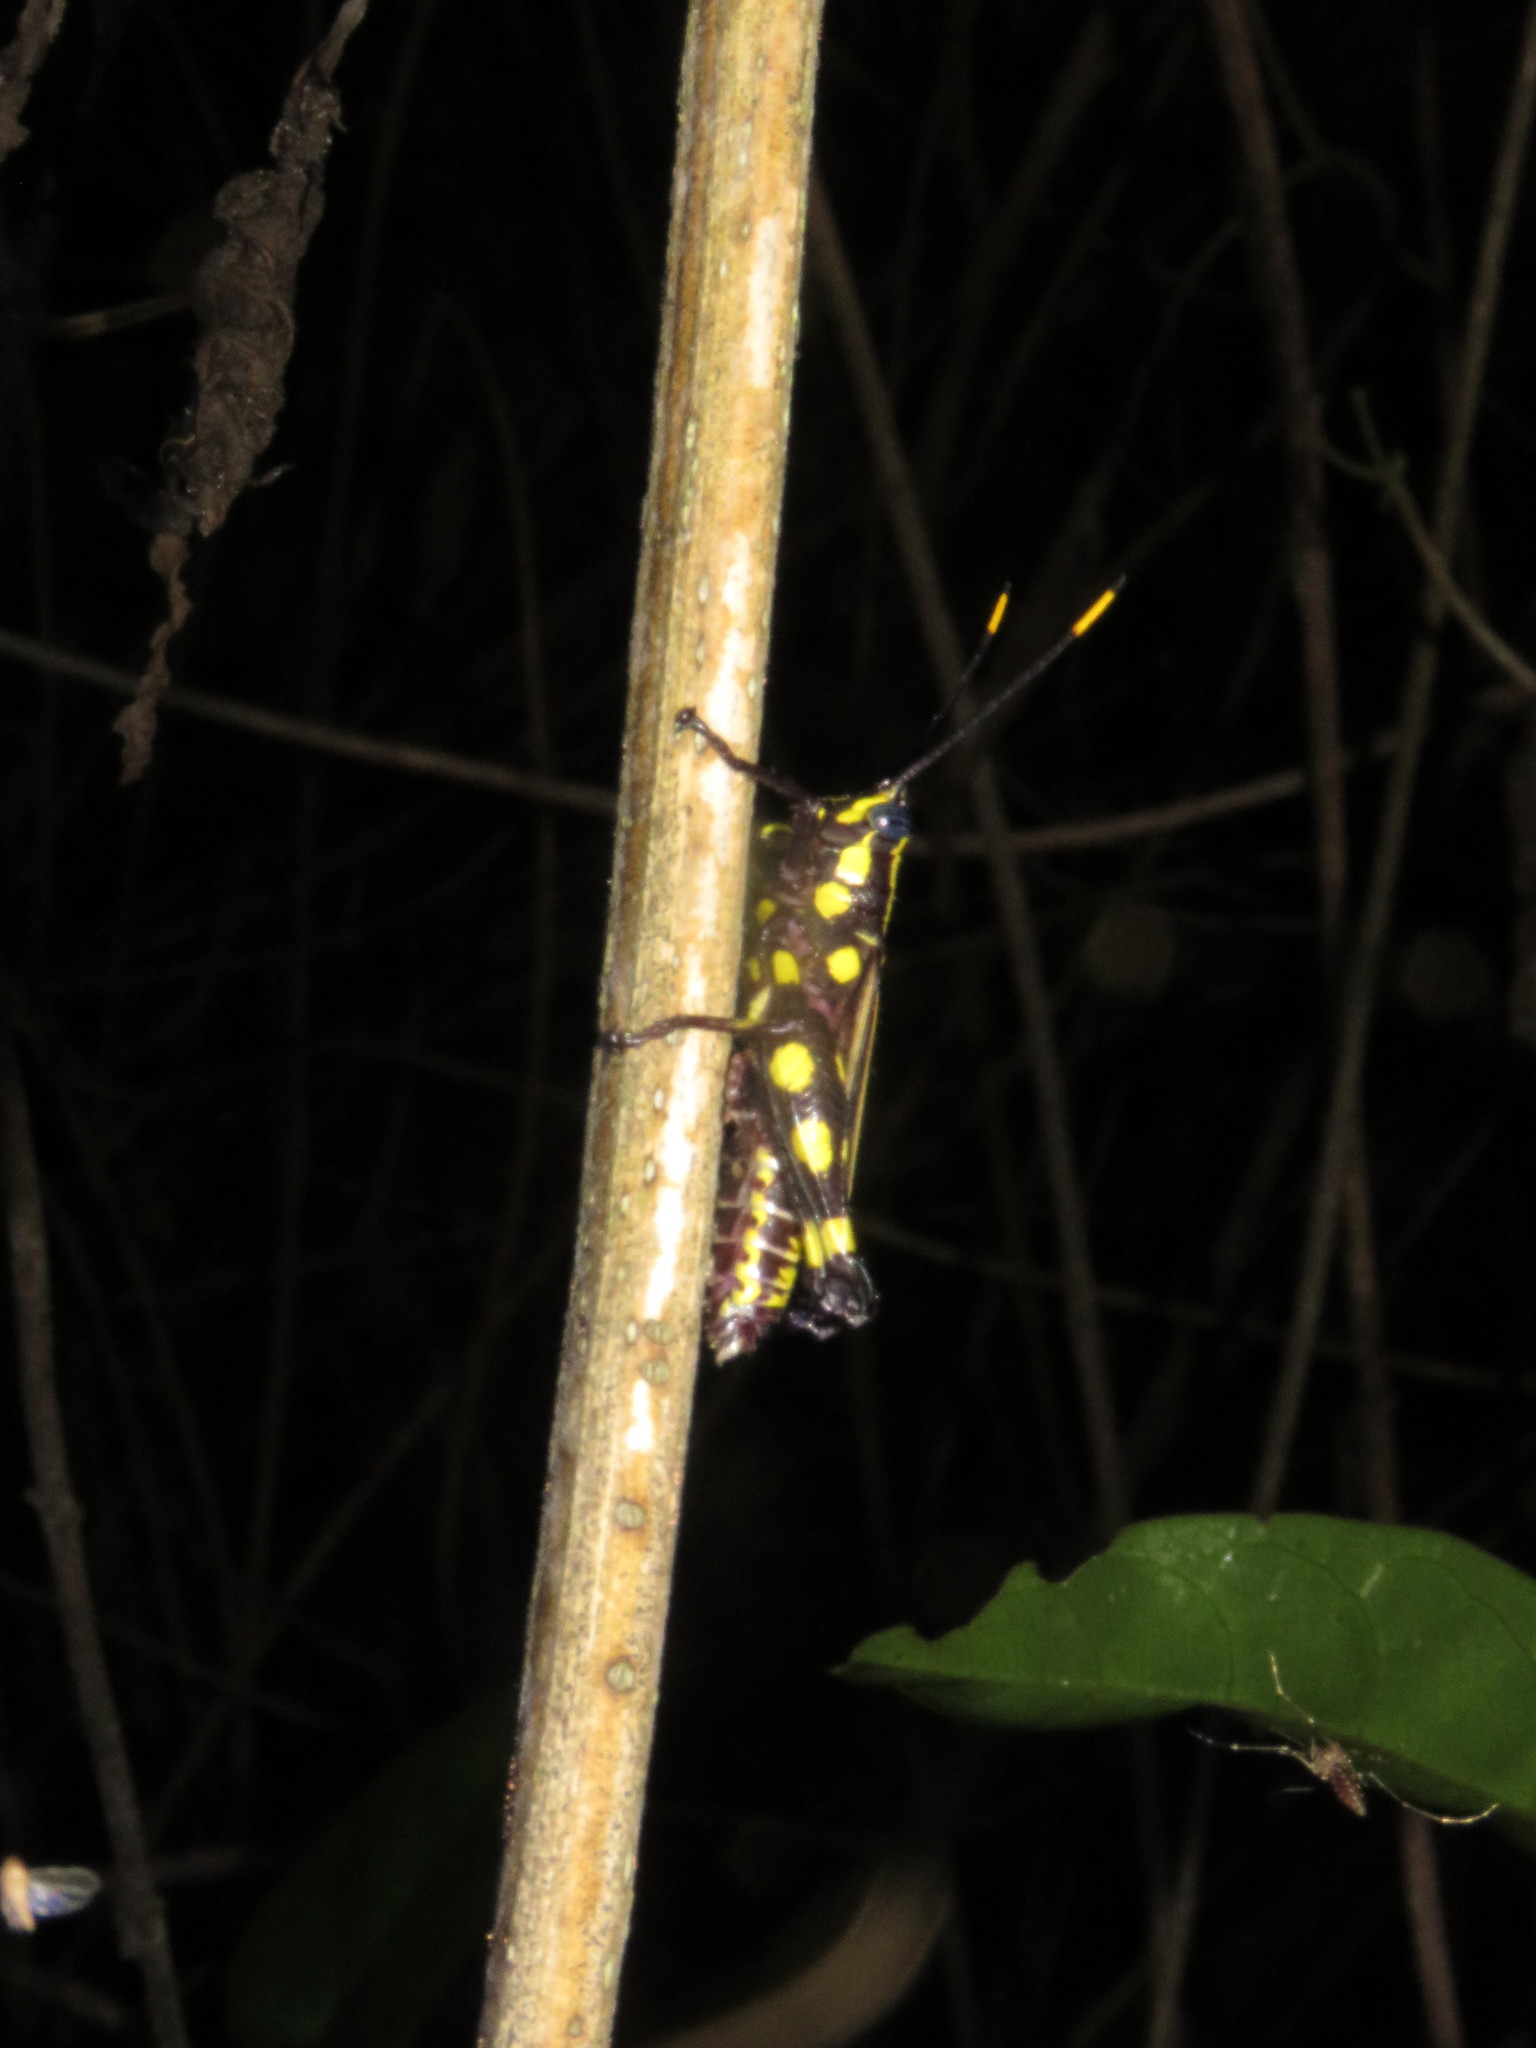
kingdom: Animalia
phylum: Arthropoda
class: Insecta
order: Orthoptera
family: Acrididae
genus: Rhopsotettix
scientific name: Rhopsotettix consummatus
